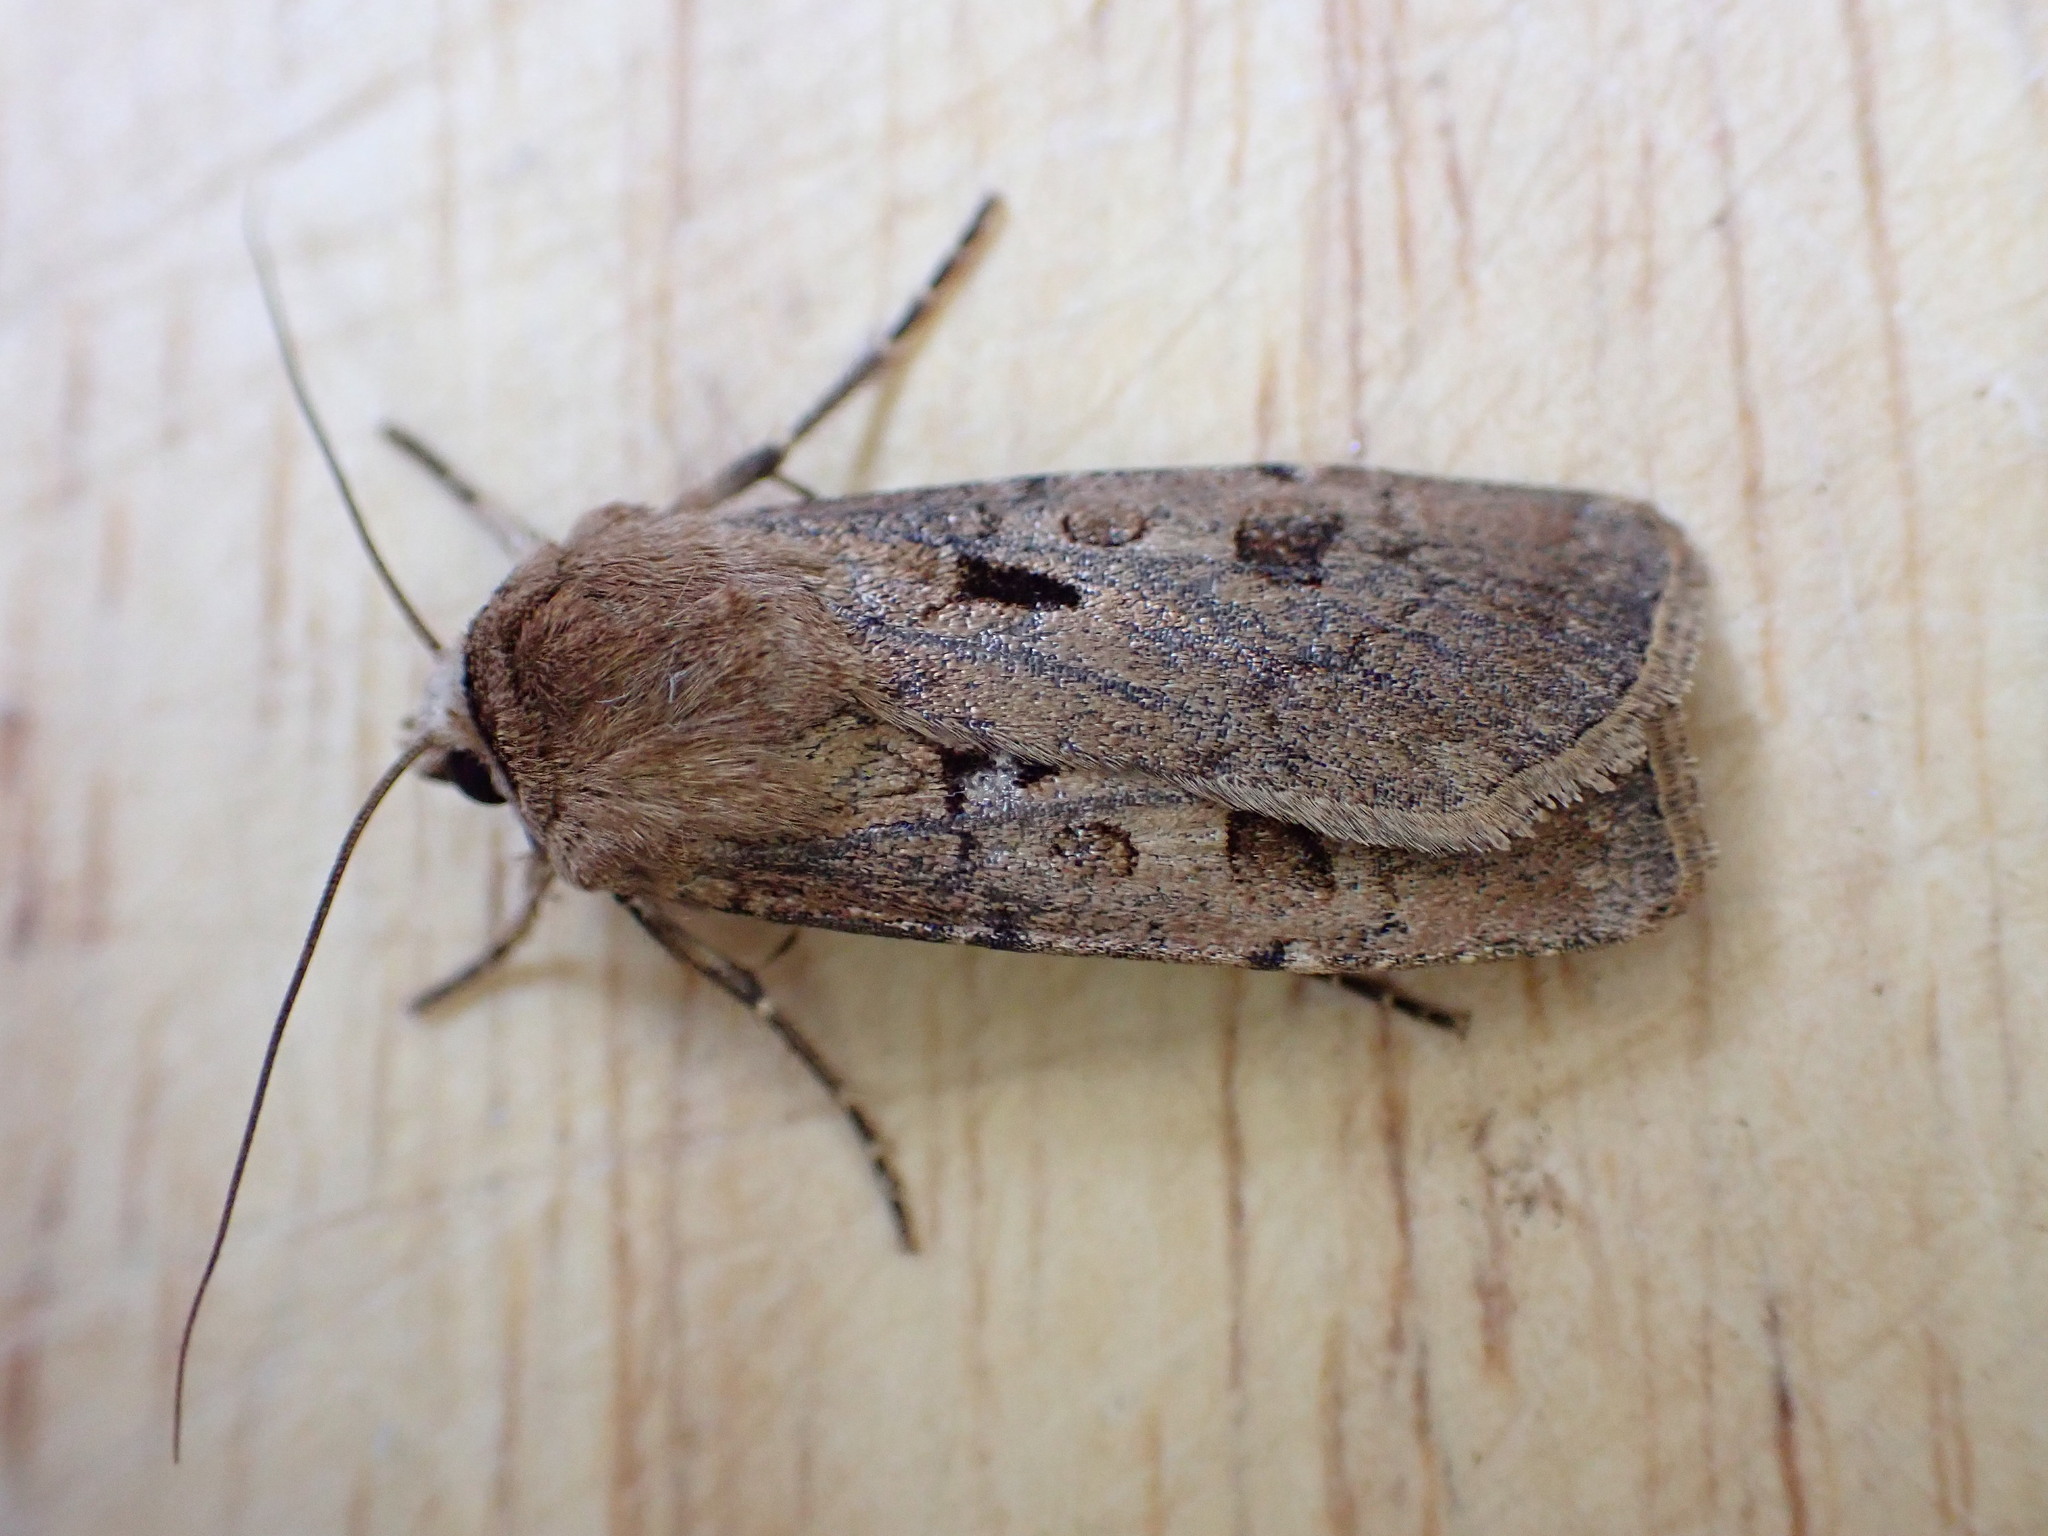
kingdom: Animalia
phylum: Arthropoda
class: Insecta
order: Lepidoptera
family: Noctuidae
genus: Agrotis
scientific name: Agrotis exclamationis
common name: Heart and dart
